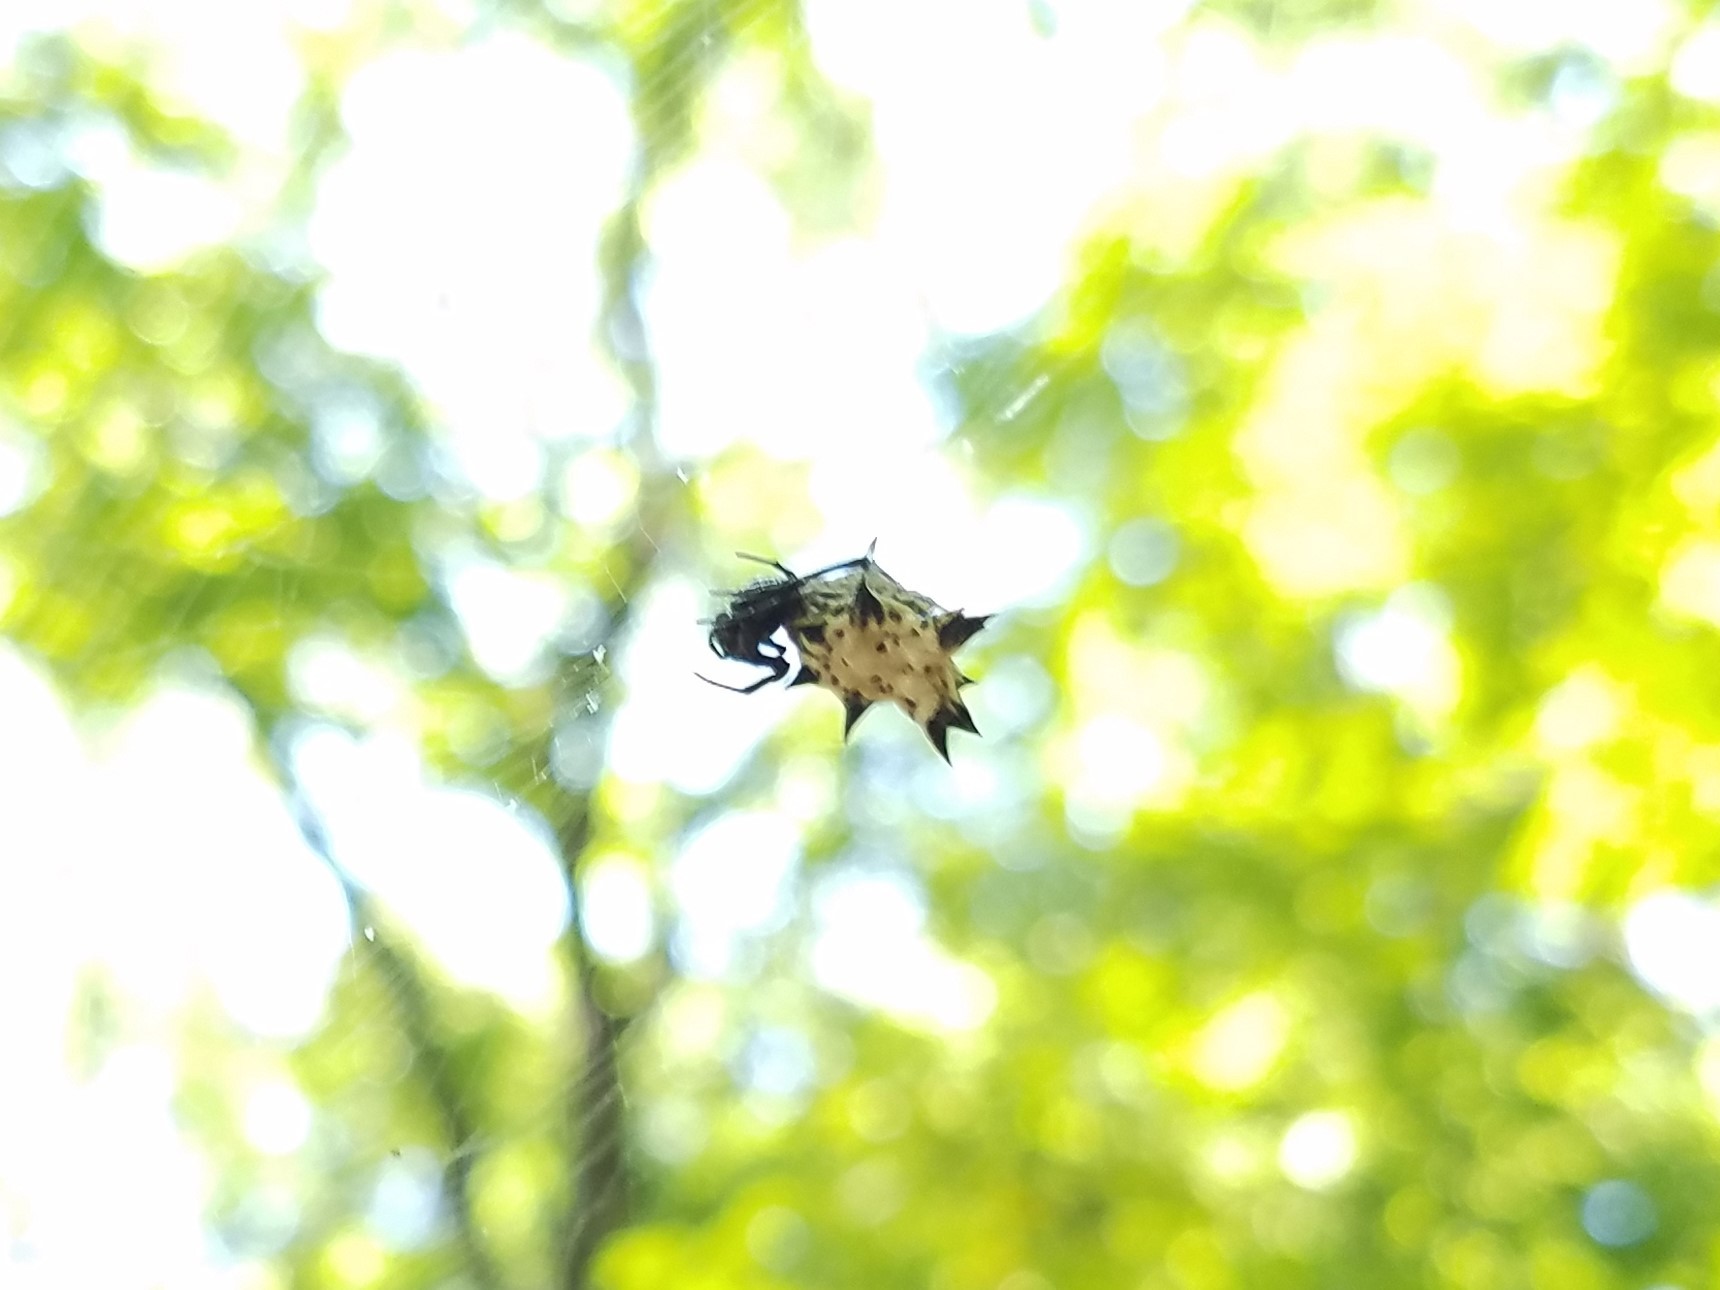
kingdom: Animalia
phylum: Arthropoda
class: Arachnida
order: Araneae
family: Araneidae
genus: Micrathena
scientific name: Micrathena gracilis
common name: Orb weavers
